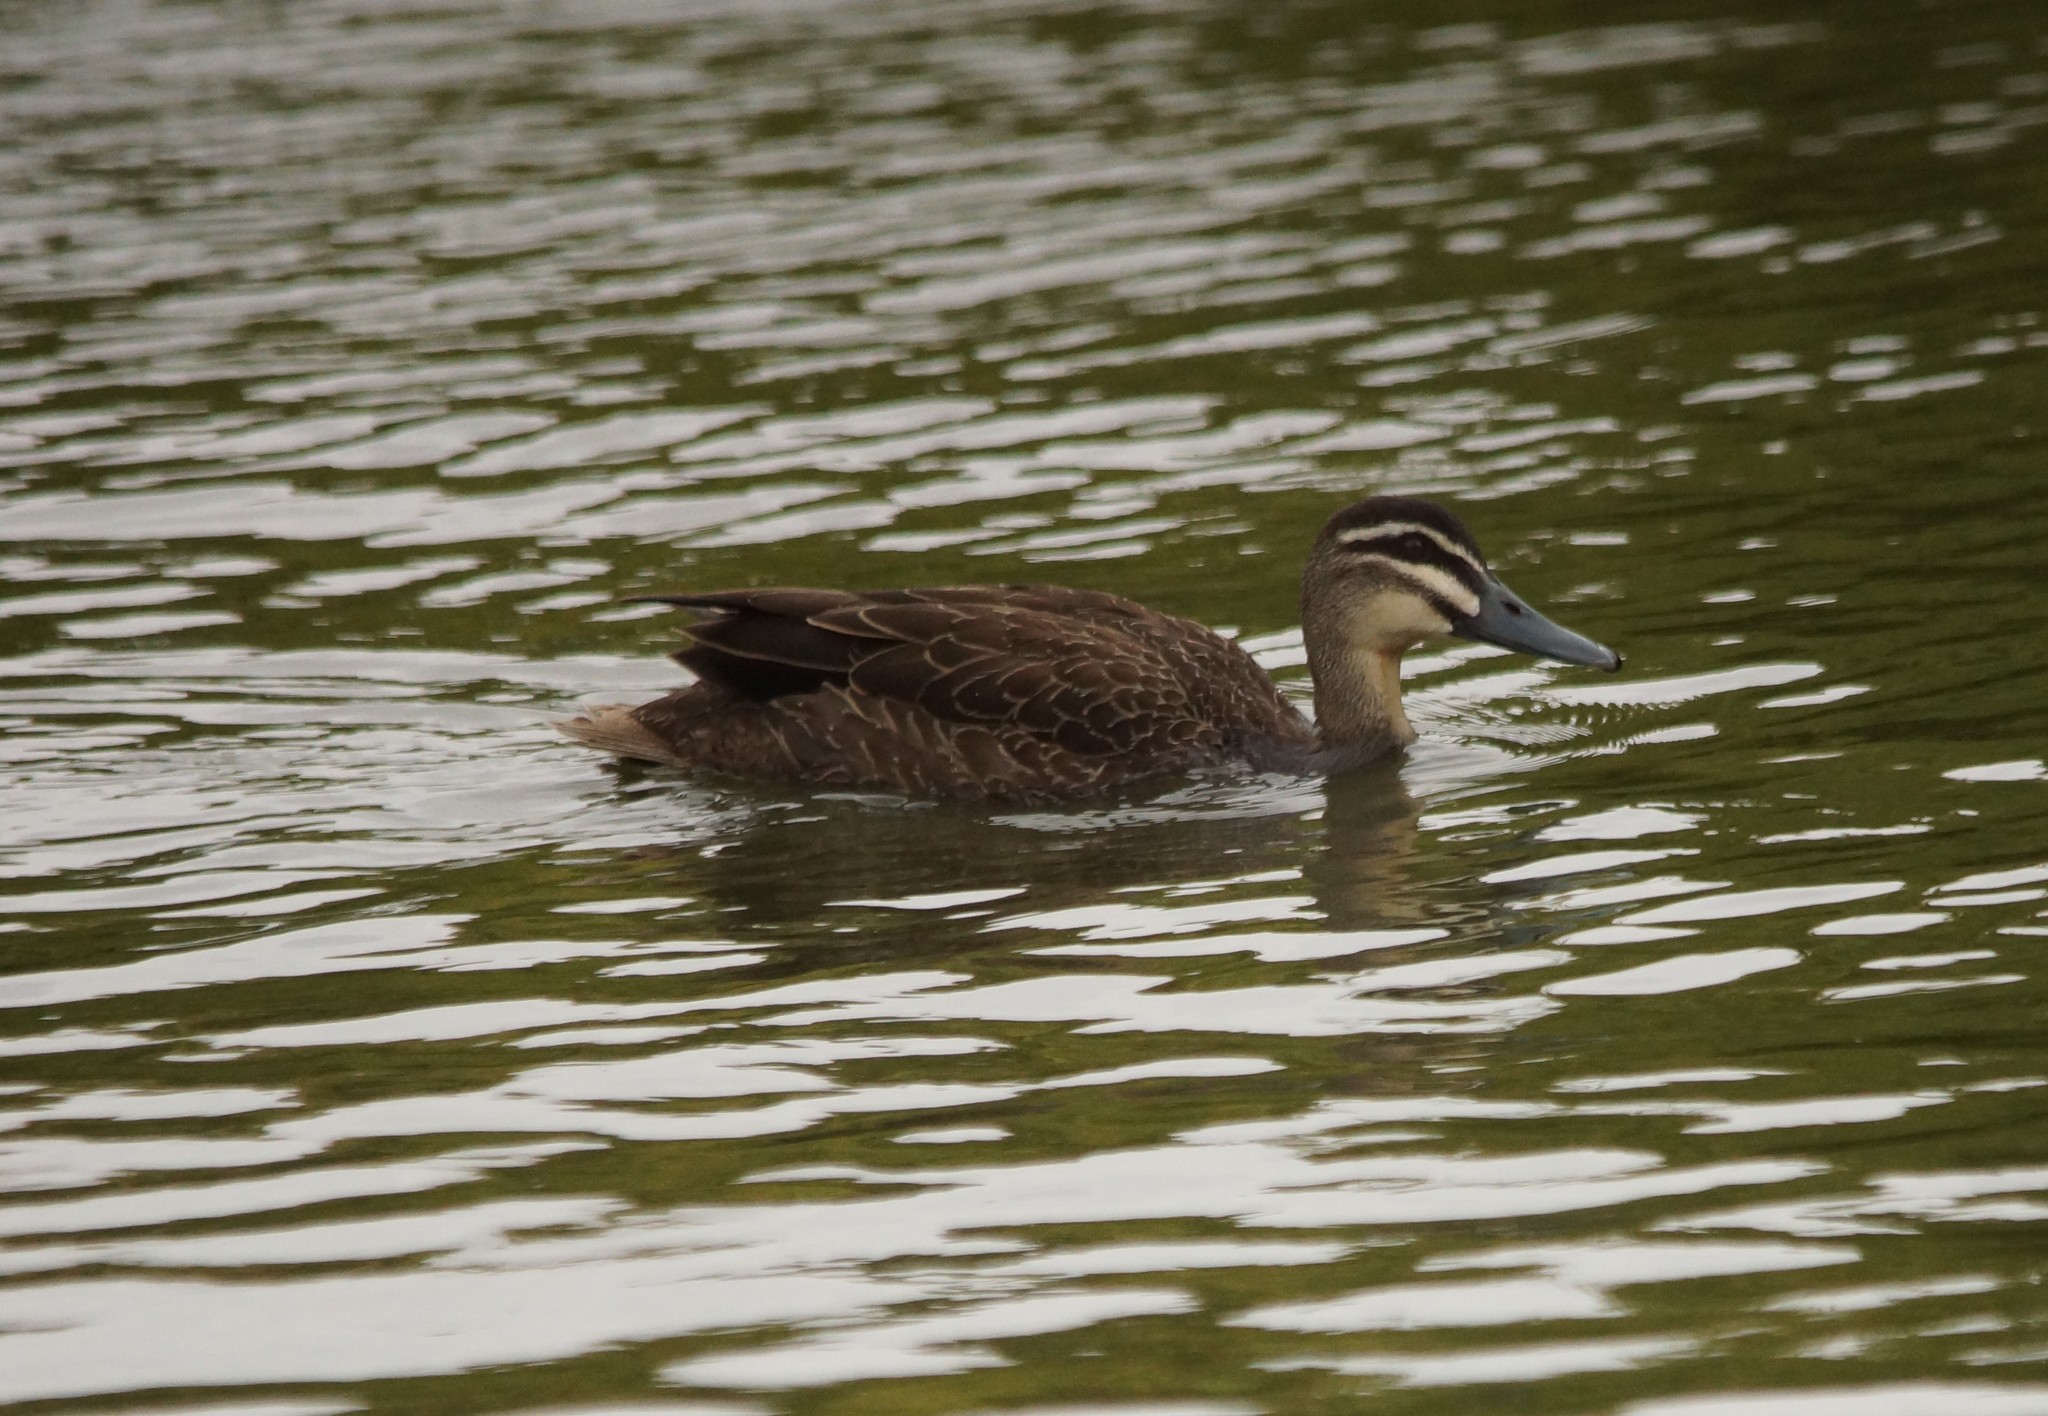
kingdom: Animalia
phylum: Chordata
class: Aves
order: Anseriformes
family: Anatidae
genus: Anas
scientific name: Anas superciliosa
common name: Pacific black duck
